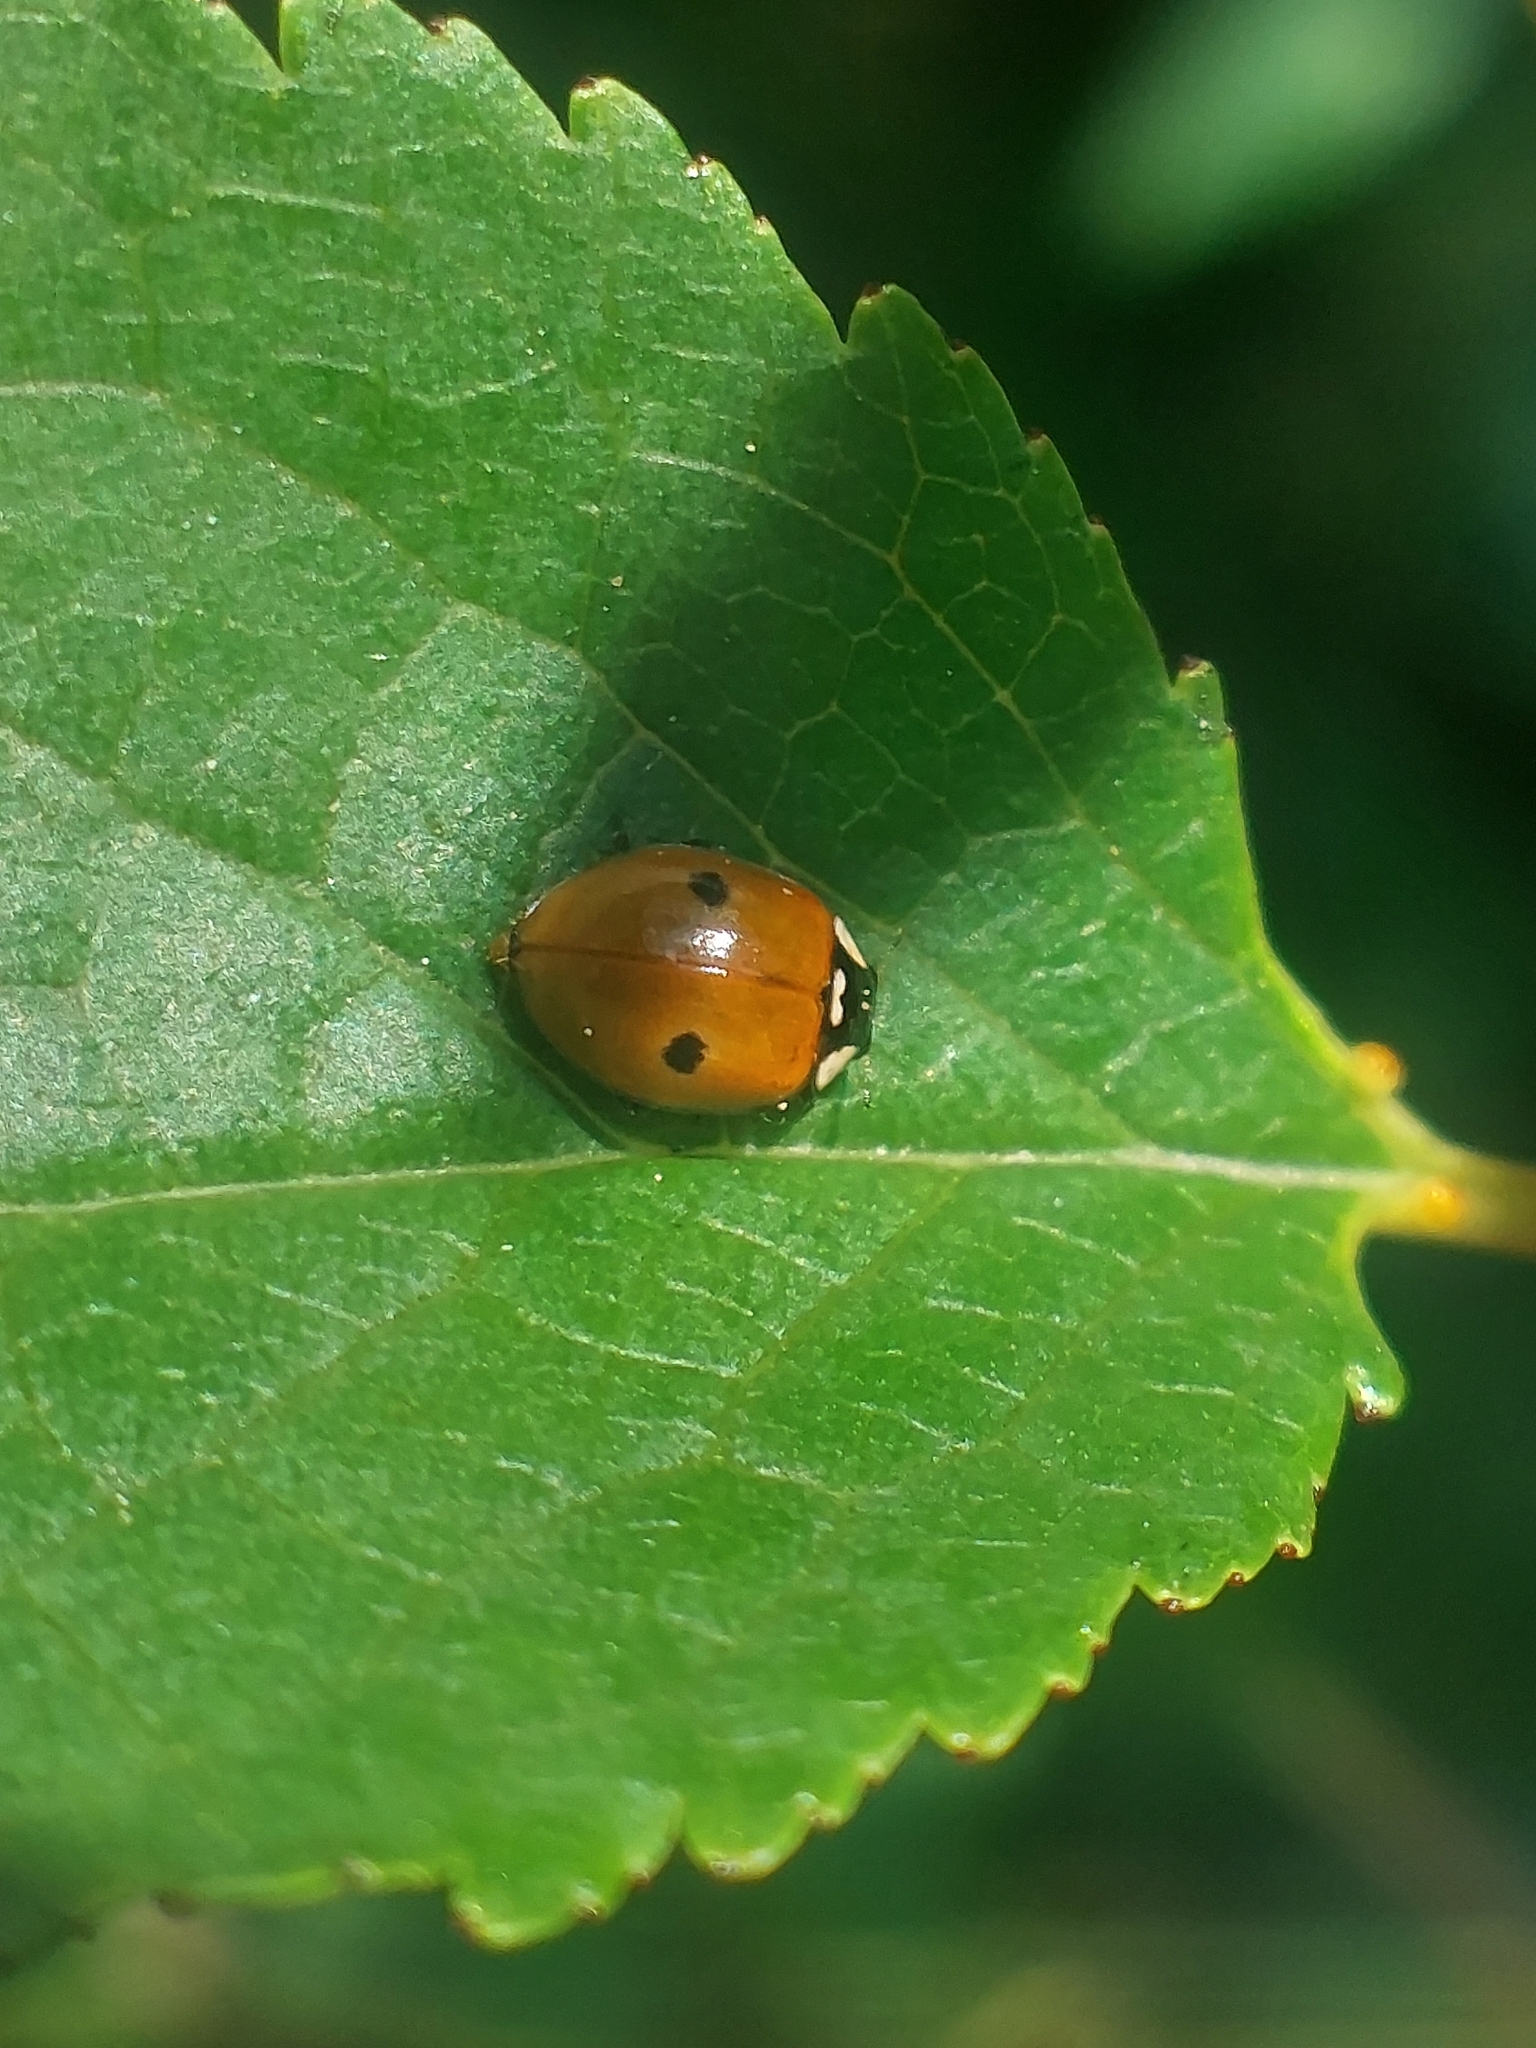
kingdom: Animalia
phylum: Arthropoda
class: Insecta
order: Coleoptera
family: Coccinellidae
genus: Adalia
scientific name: Adalia bipunctata
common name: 2-spot ladybird
